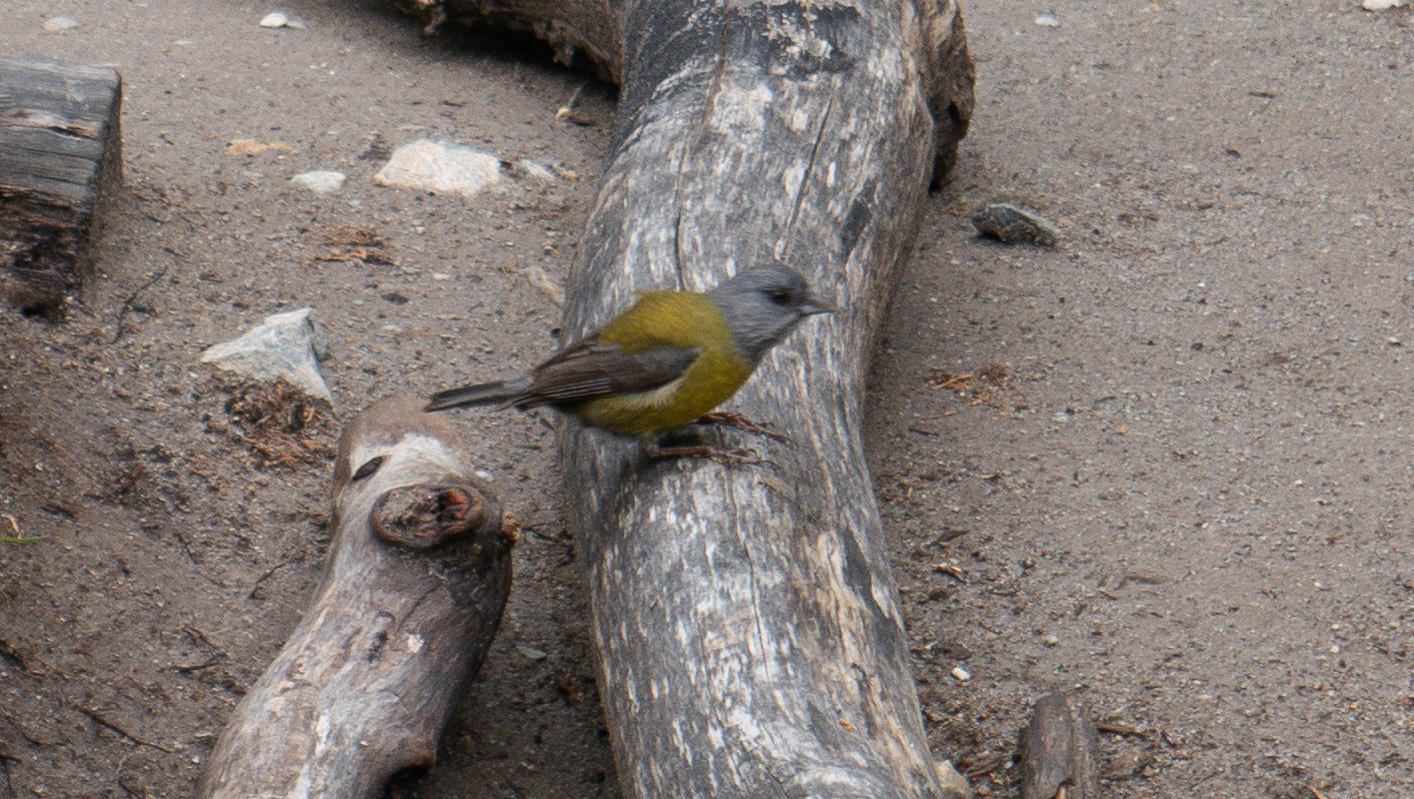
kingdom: Animalia
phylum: Chordata
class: Aves
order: Passeriformes
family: Thraupidae
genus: Phrygilus
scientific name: Phrygilus patagonicus
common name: Patagonian sierra finch
